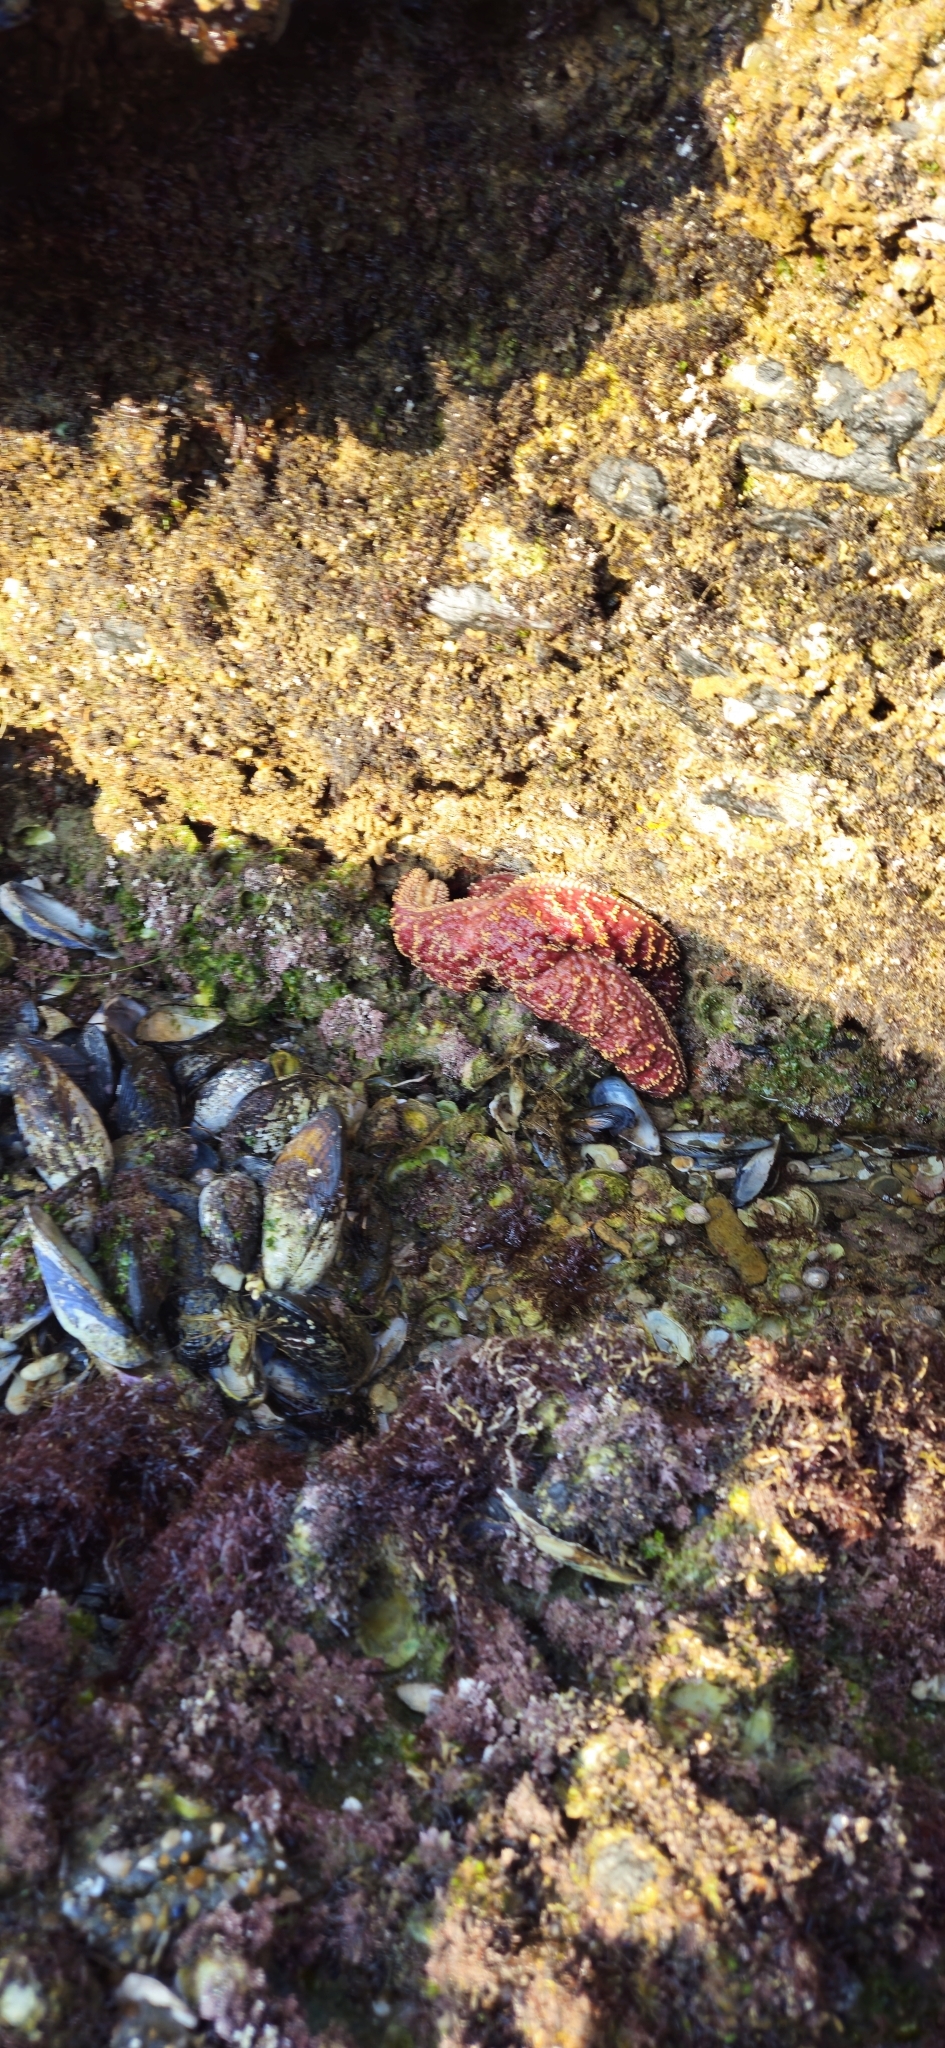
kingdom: Animalia
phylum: Echinodermata
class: Asteroidea
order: Forcipulatida
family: Asteriidae
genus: Pisaster
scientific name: Pisaster ochraceus
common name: Ochre stars
